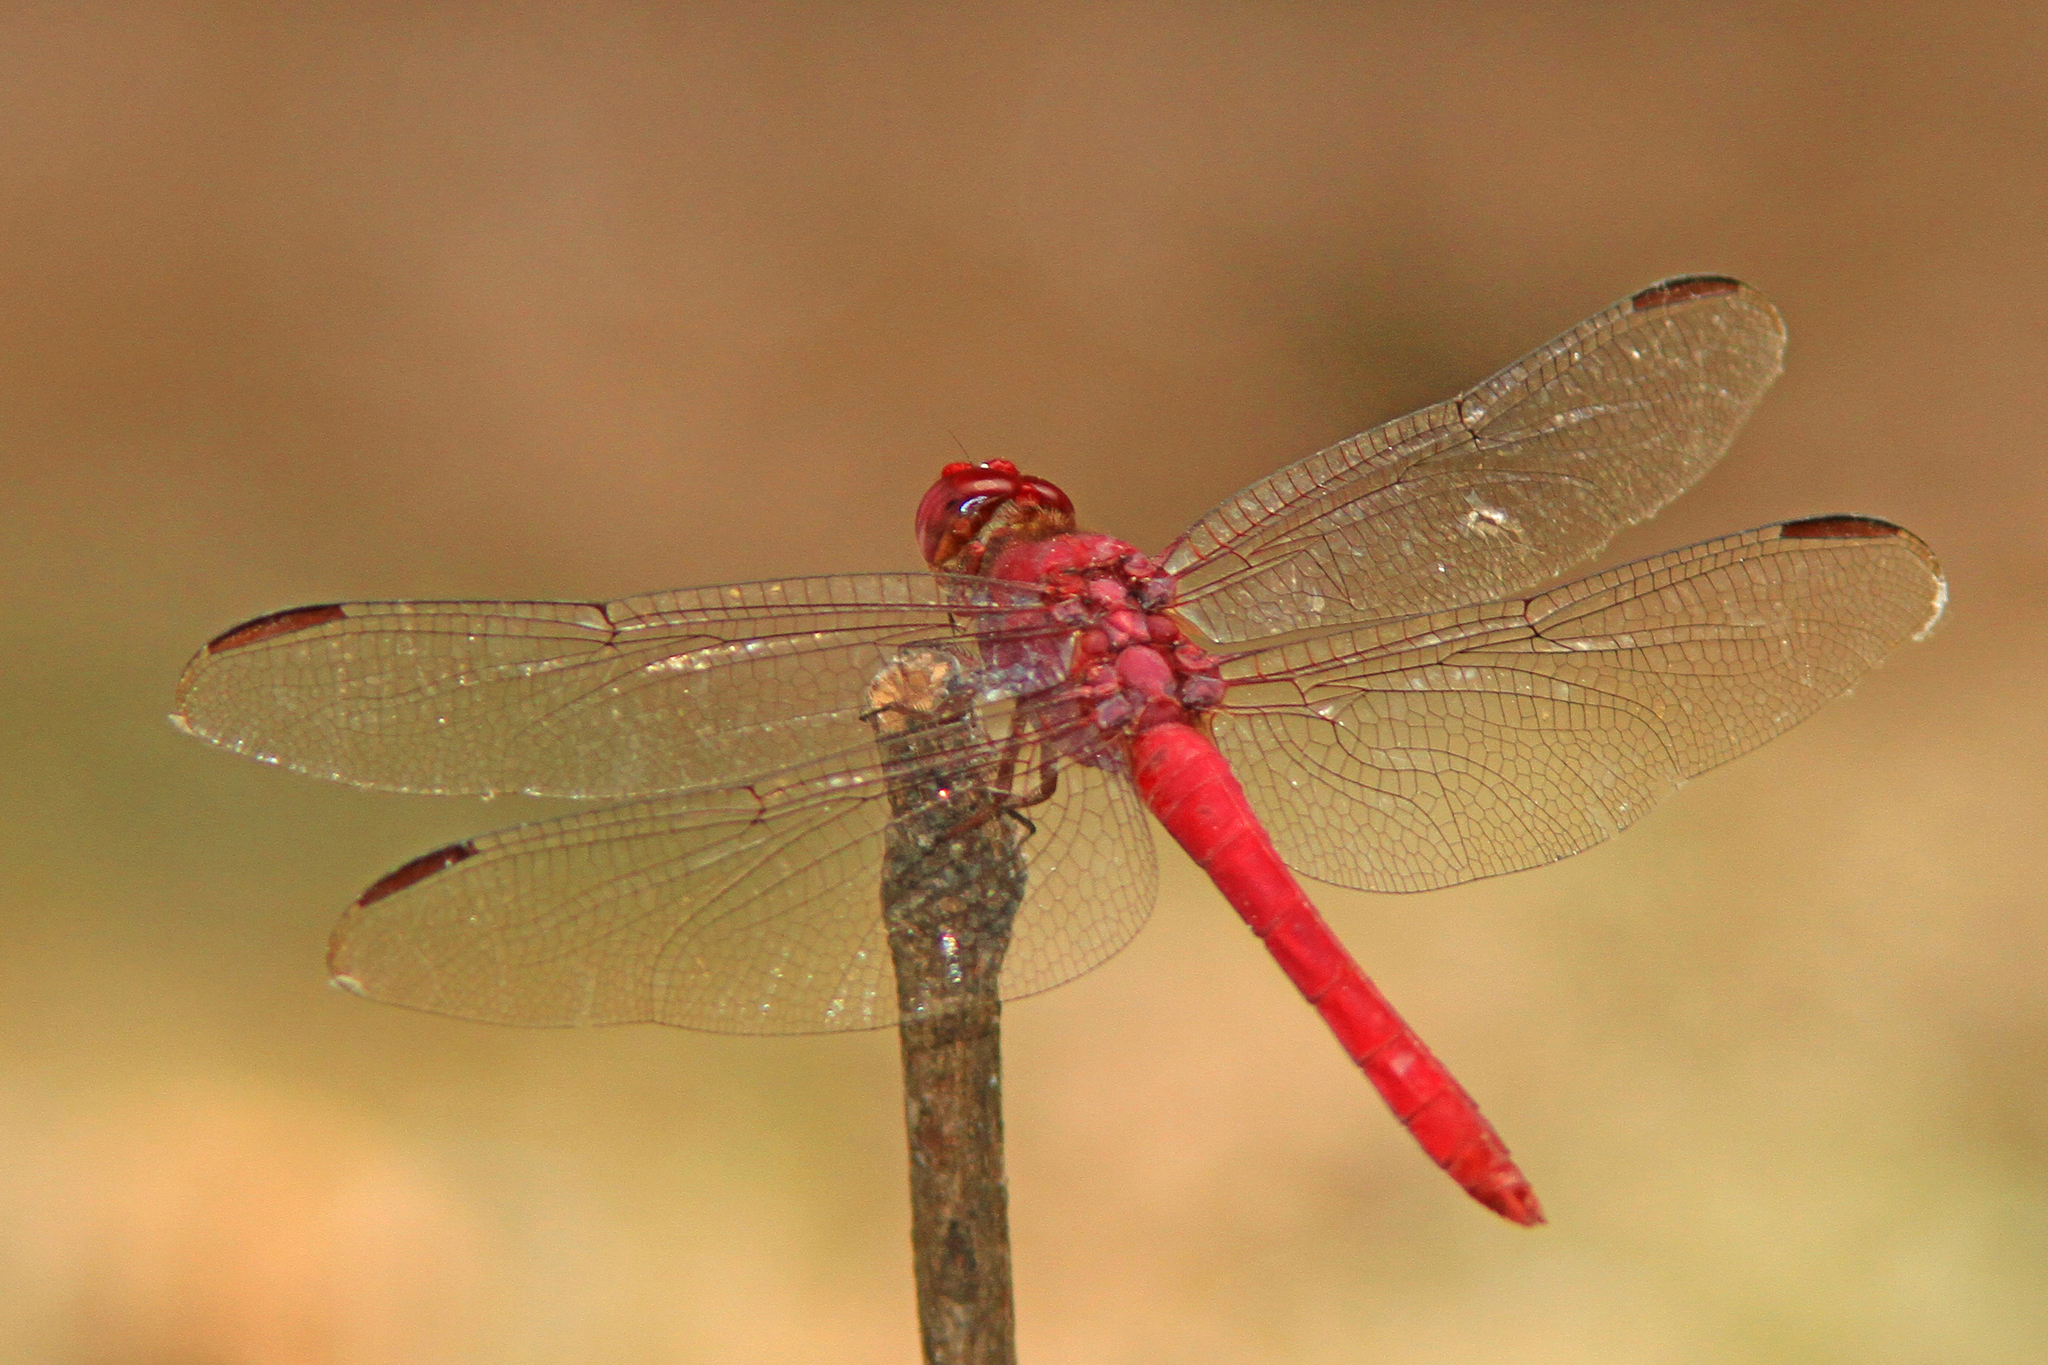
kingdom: Animalia
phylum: Arthropoda
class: Insecta
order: Odonata
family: Libellulidae
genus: Orthemis
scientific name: Orthemis discolor
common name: Carmine skimmer
